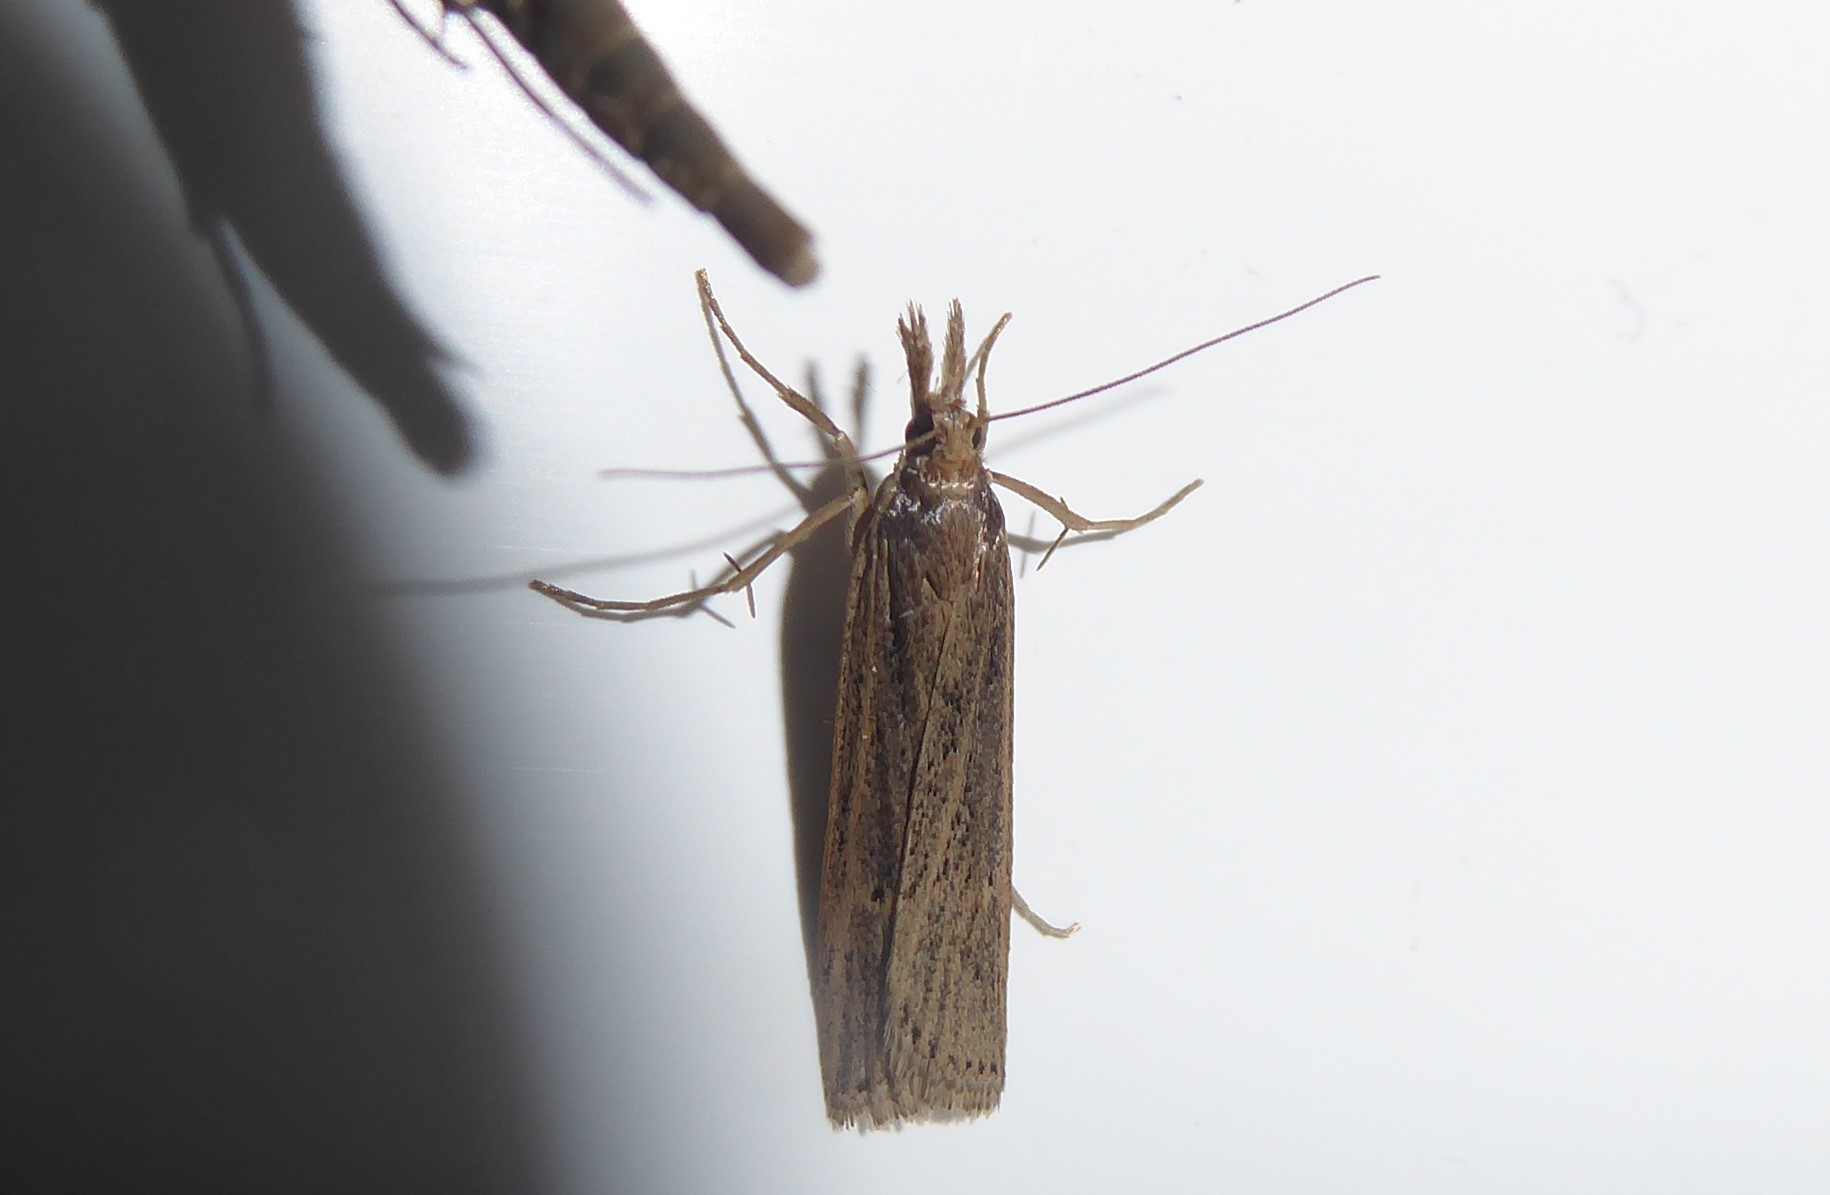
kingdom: Animalia
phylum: Arthropoda
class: Insecta
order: Lepidoptera
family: Crambidae
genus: Eudonia
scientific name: Eudonia sabulosella
